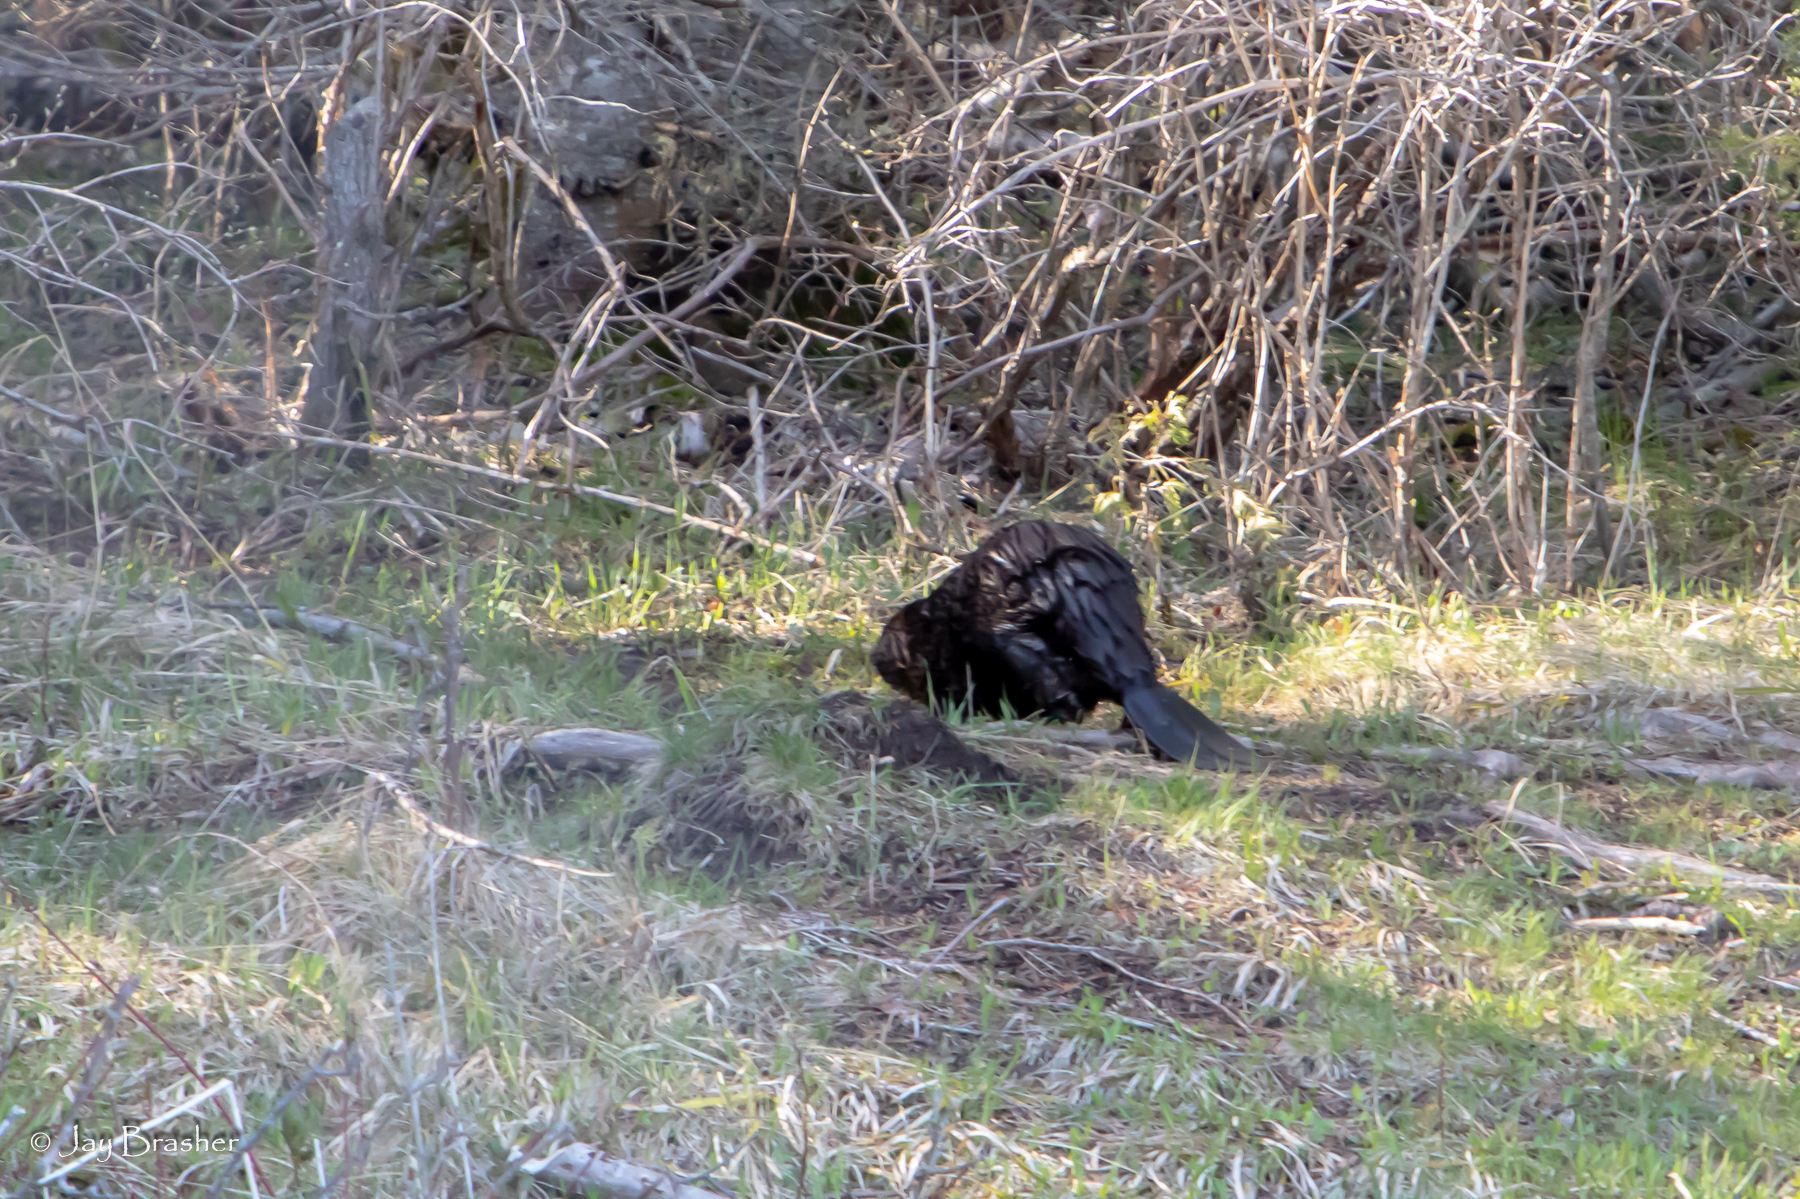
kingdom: Animalia
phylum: Chordata
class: Mammalia
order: Rodentia
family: Castoridae
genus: Castor
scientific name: Castor canadensis
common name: American beaver
